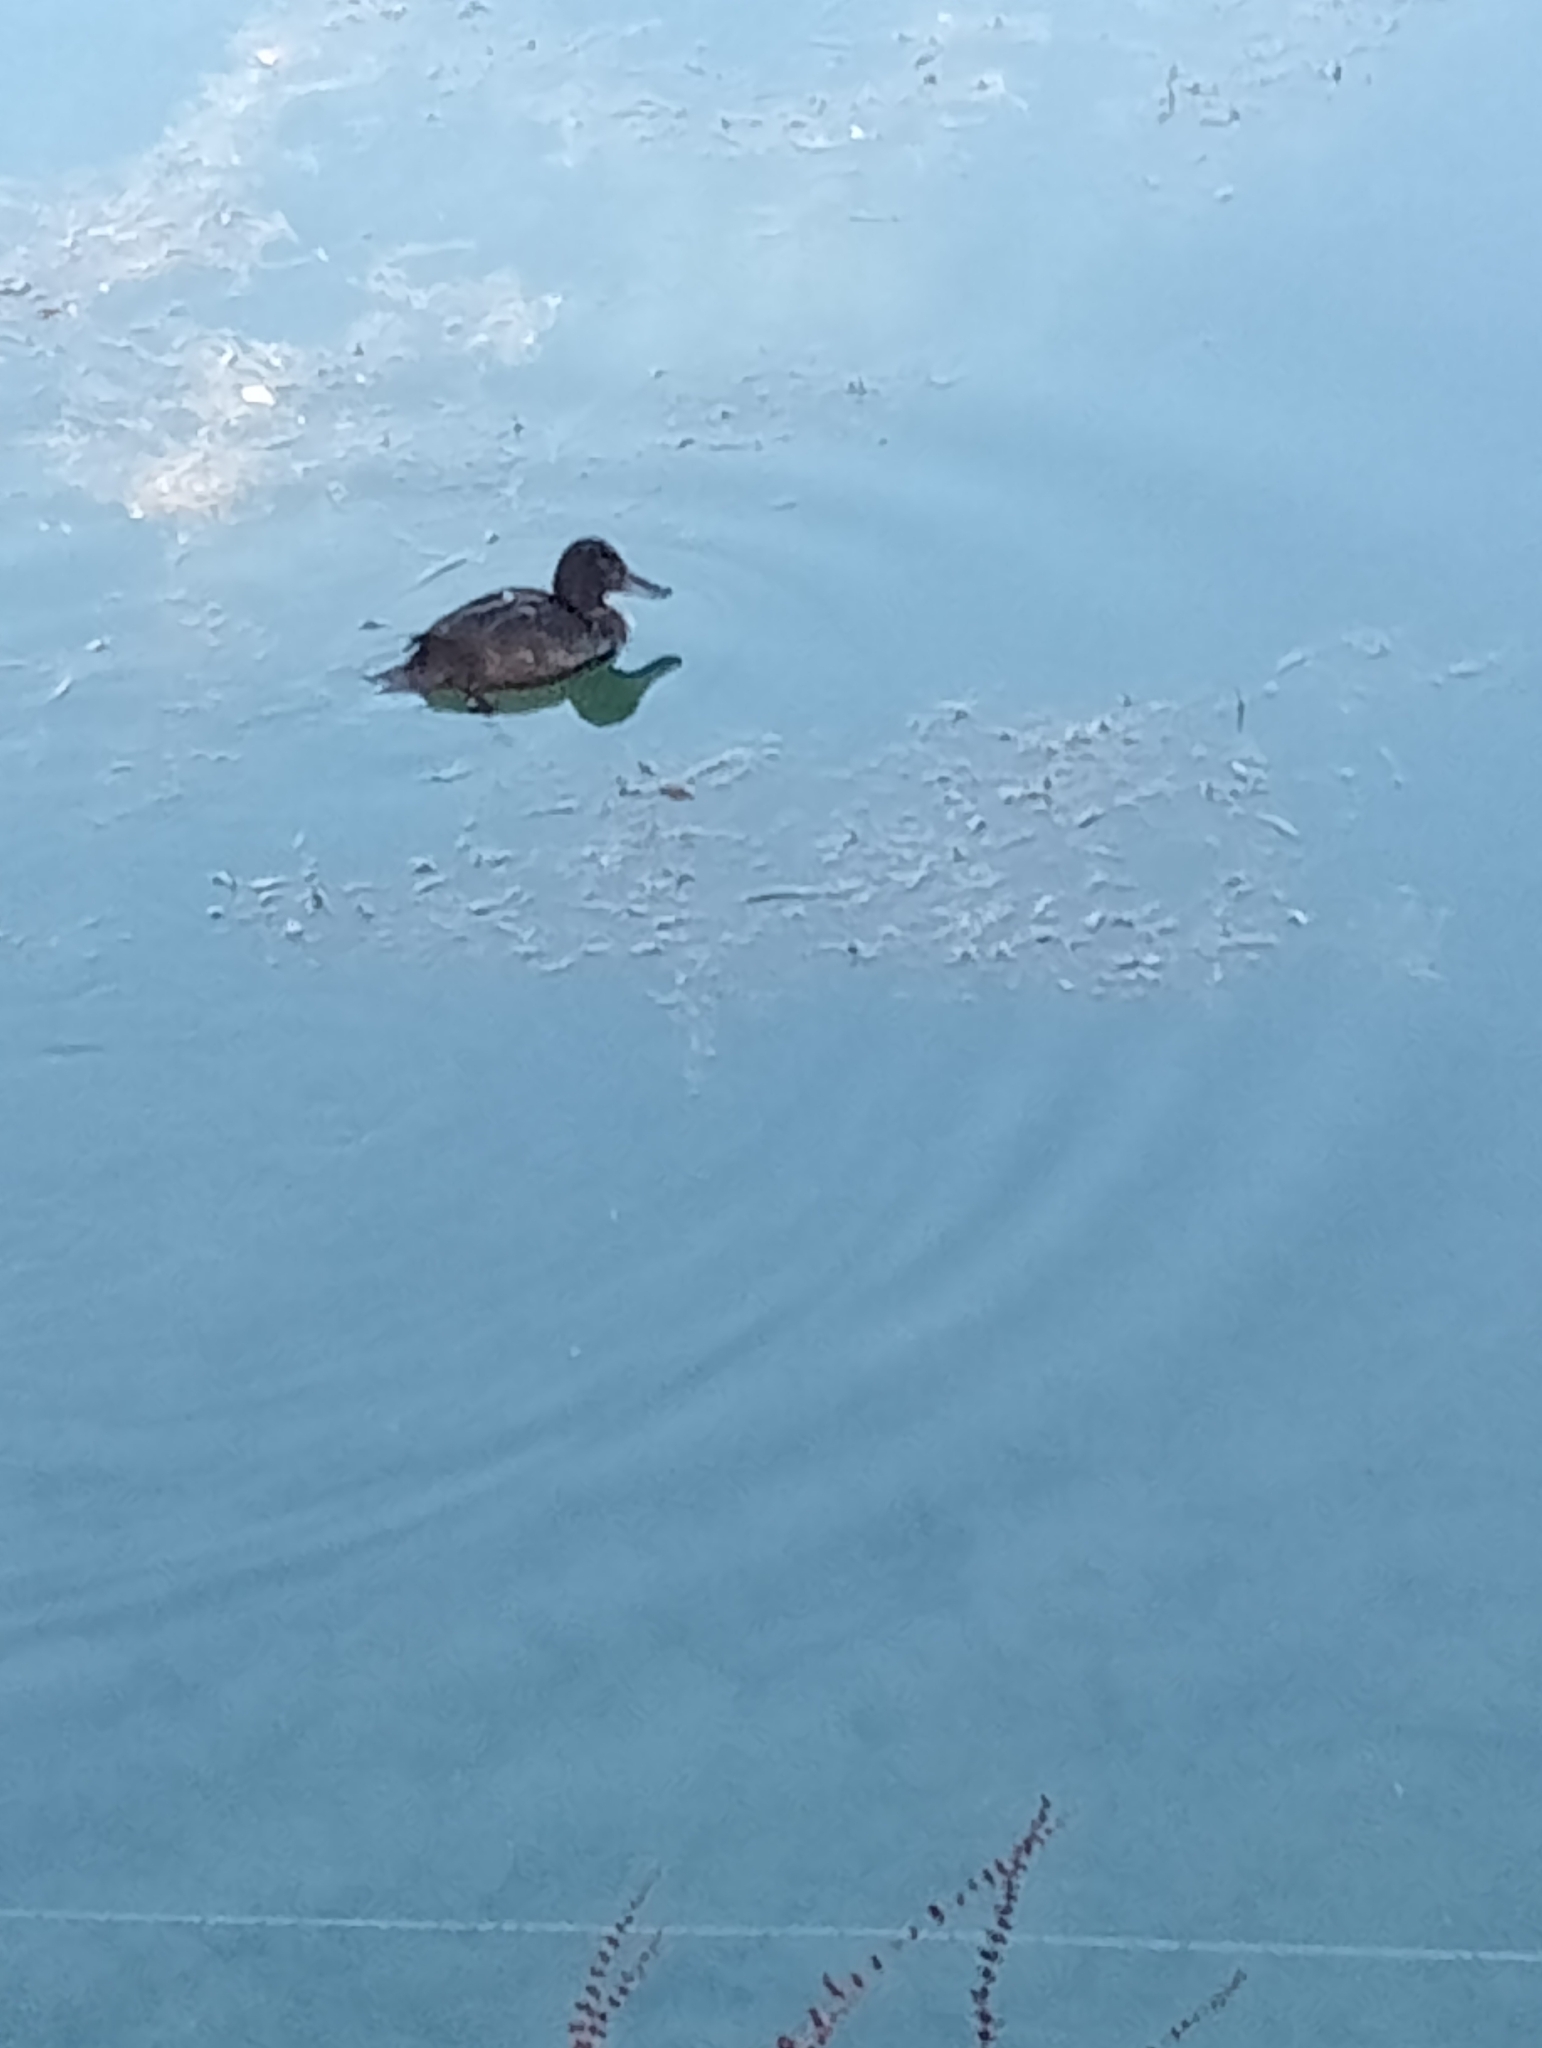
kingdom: Animalia
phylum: Chordata
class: Aves
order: Anseriformes
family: Anatidae
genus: Aythya
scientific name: Aythya novaeseelandiae
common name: New zealand scaup
